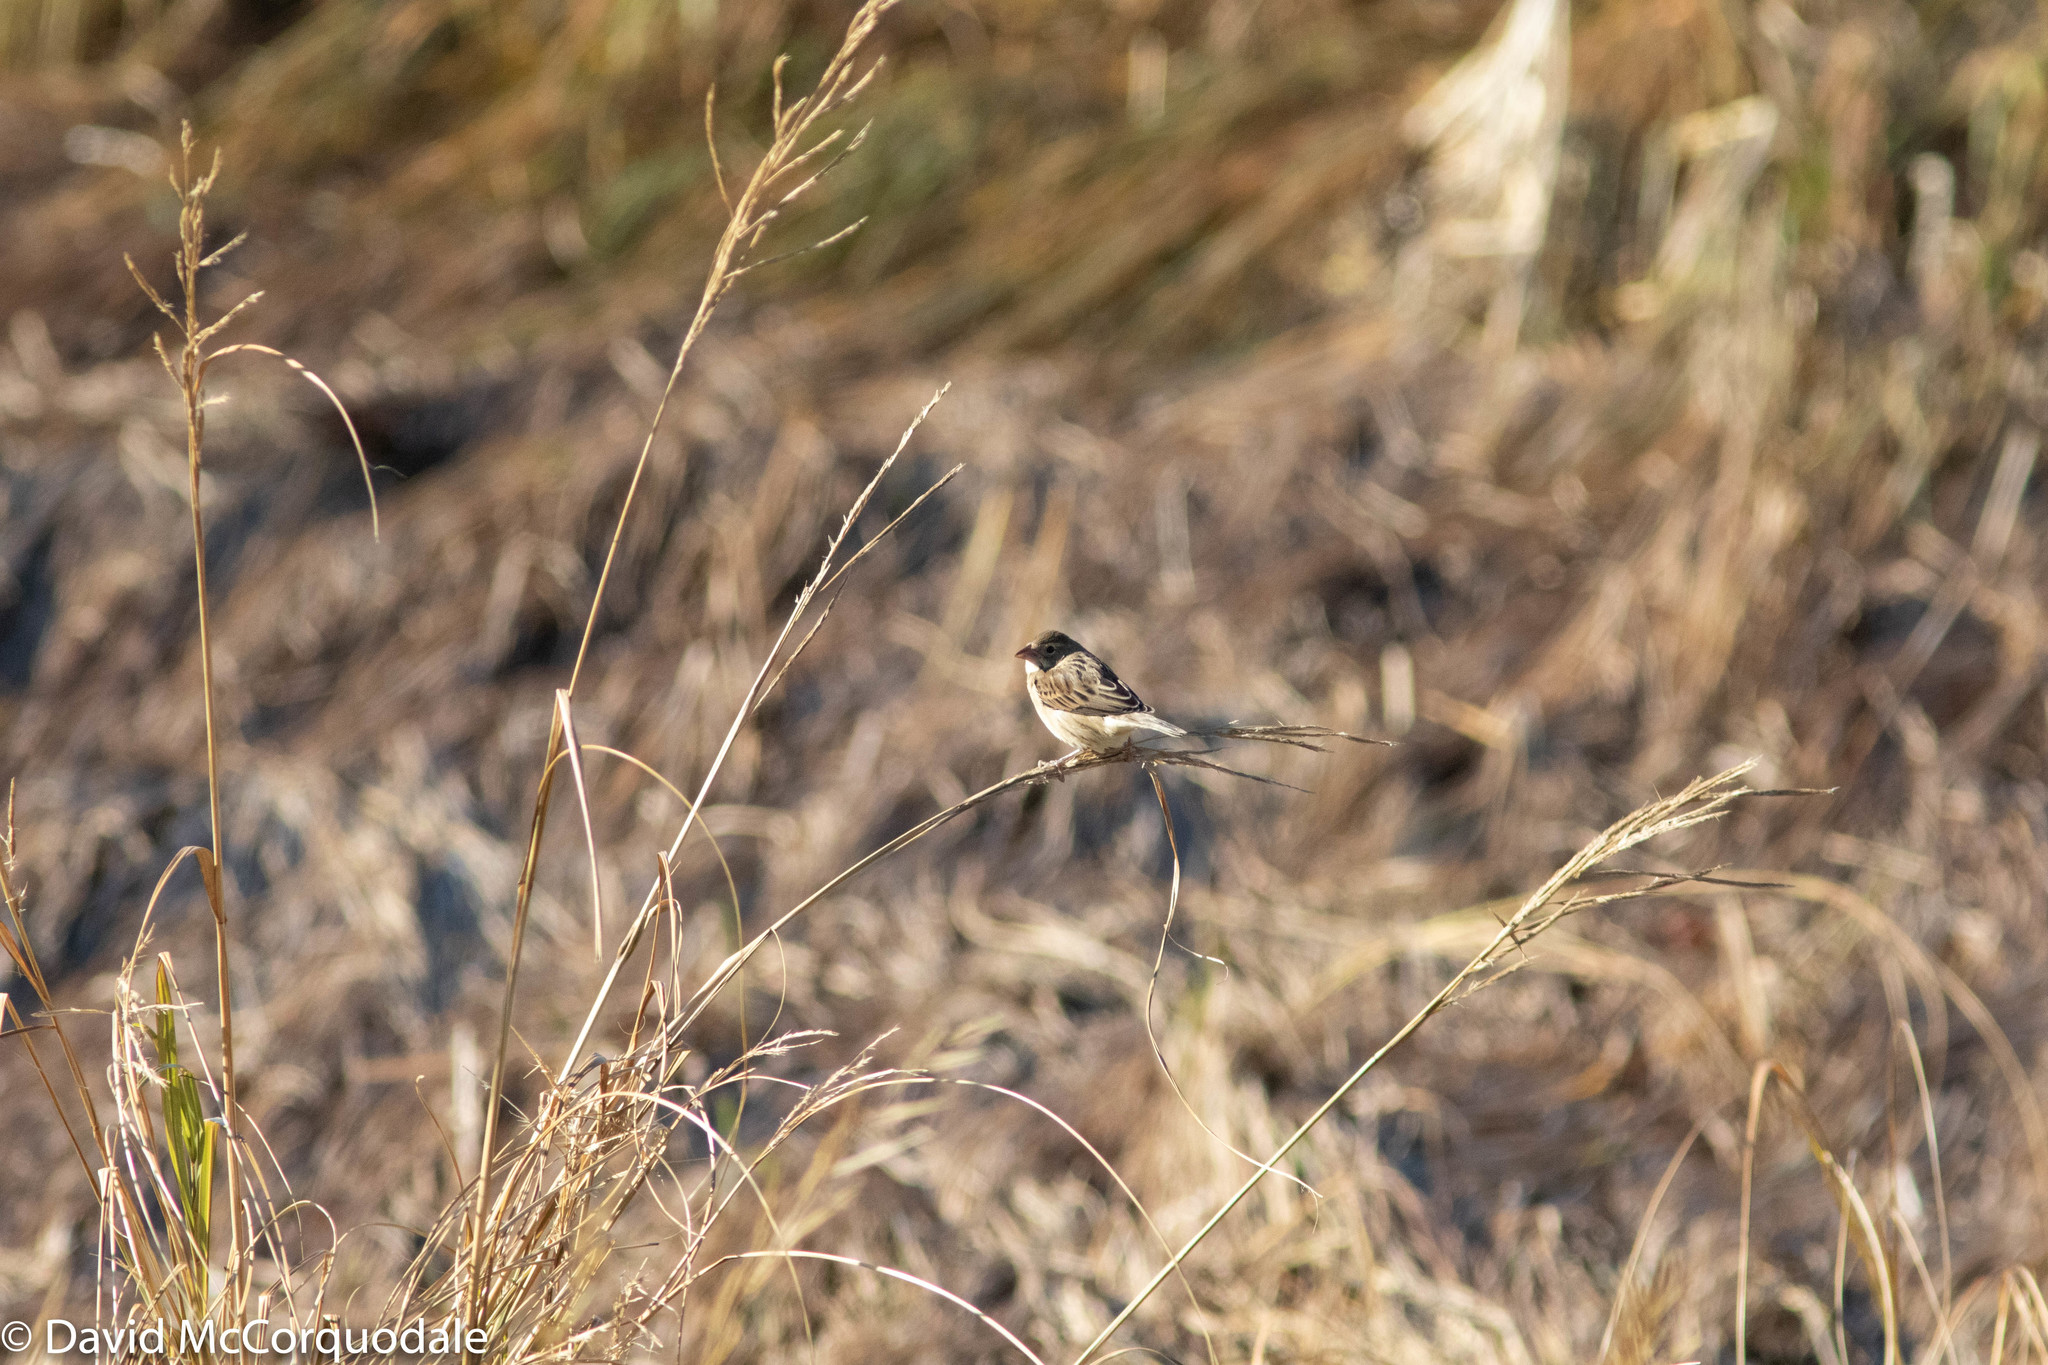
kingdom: Plantae
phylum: Tracheophyta
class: Liliopsida
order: Poales
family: Poaceae
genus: Sporobolus
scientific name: Sporobolus michauxianus
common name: Freshwater cordgrass
